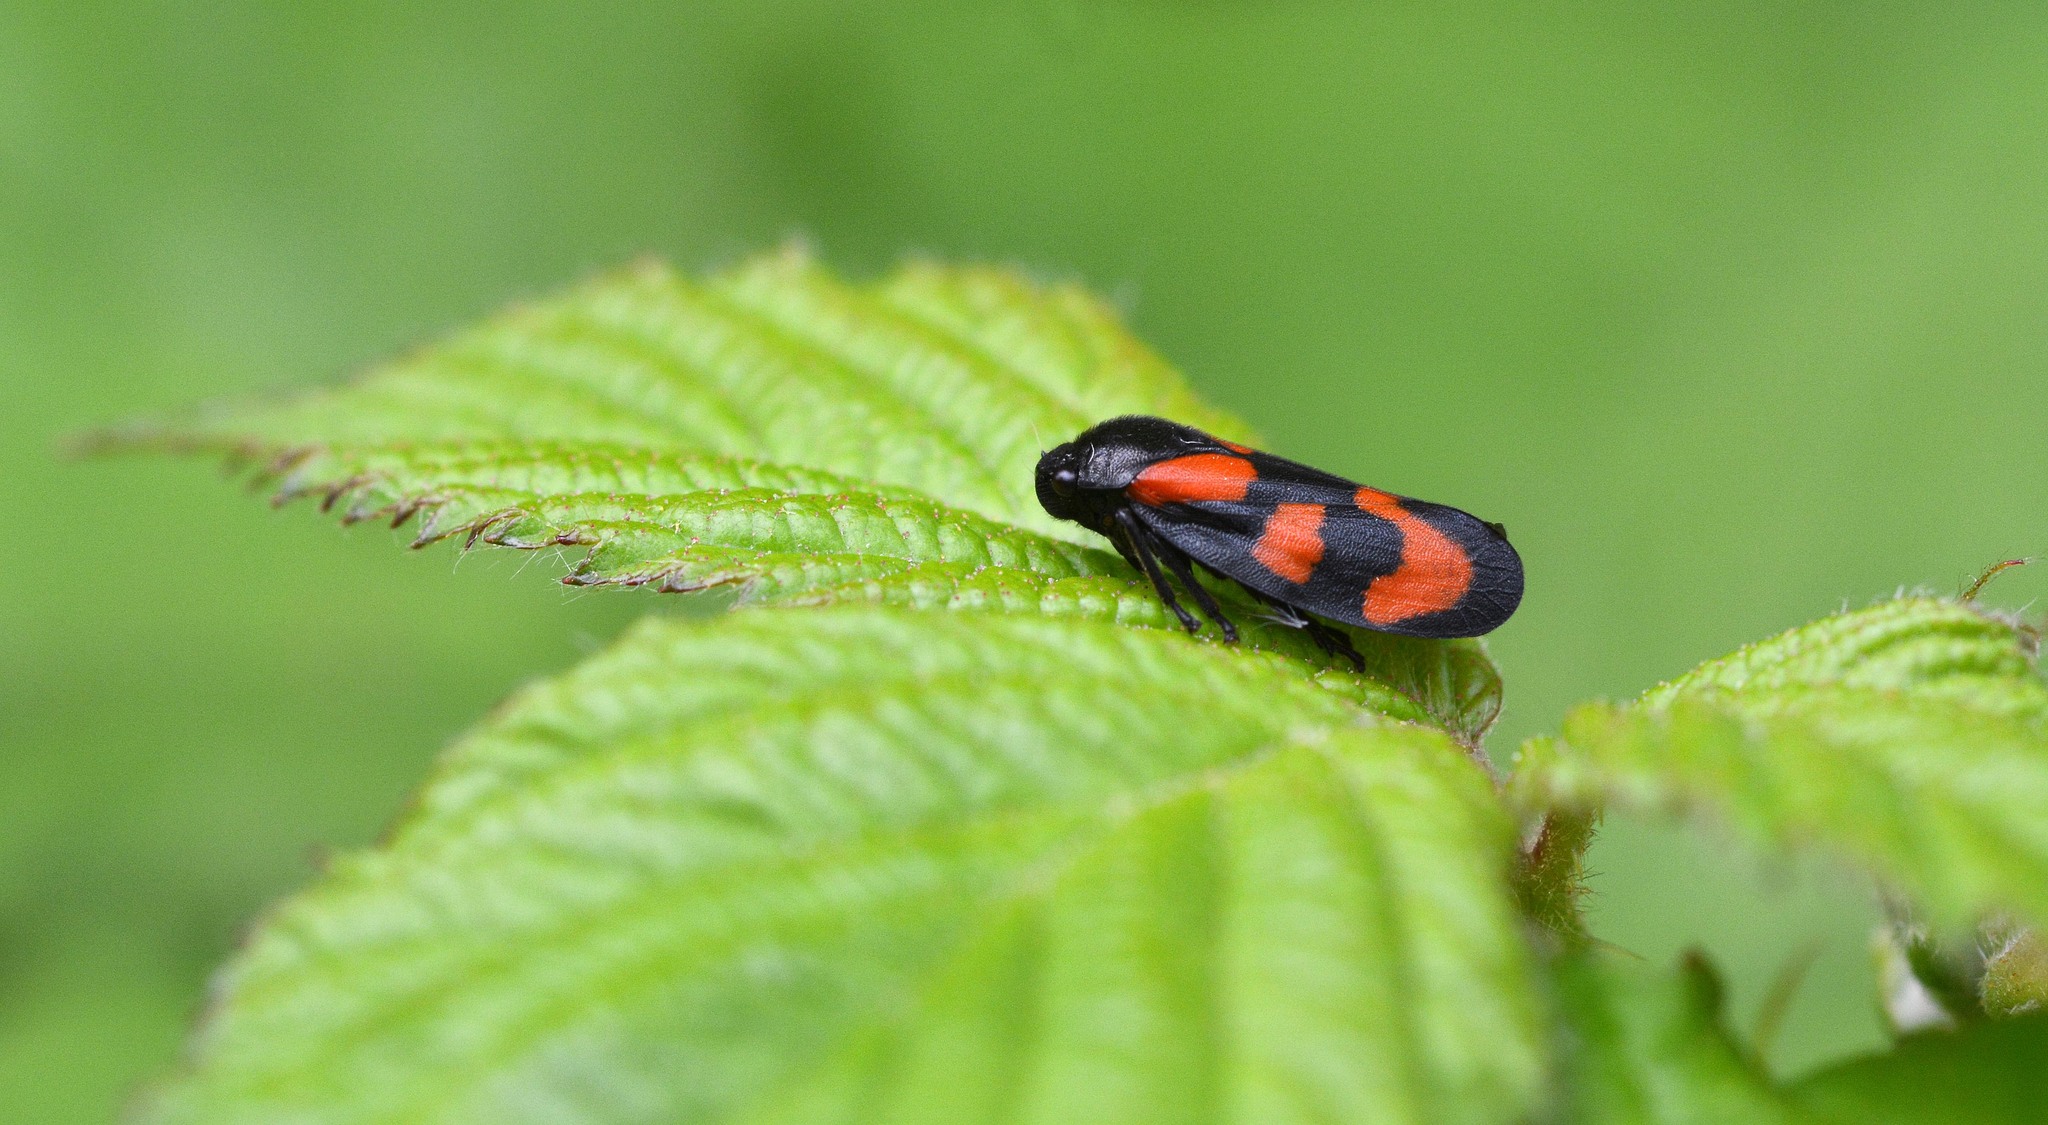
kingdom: Animalia
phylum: Arthropoda
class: Insecta
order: Hemiptera
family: Cercopidae
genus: Cercopis
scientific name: Cercopis vulnerata
